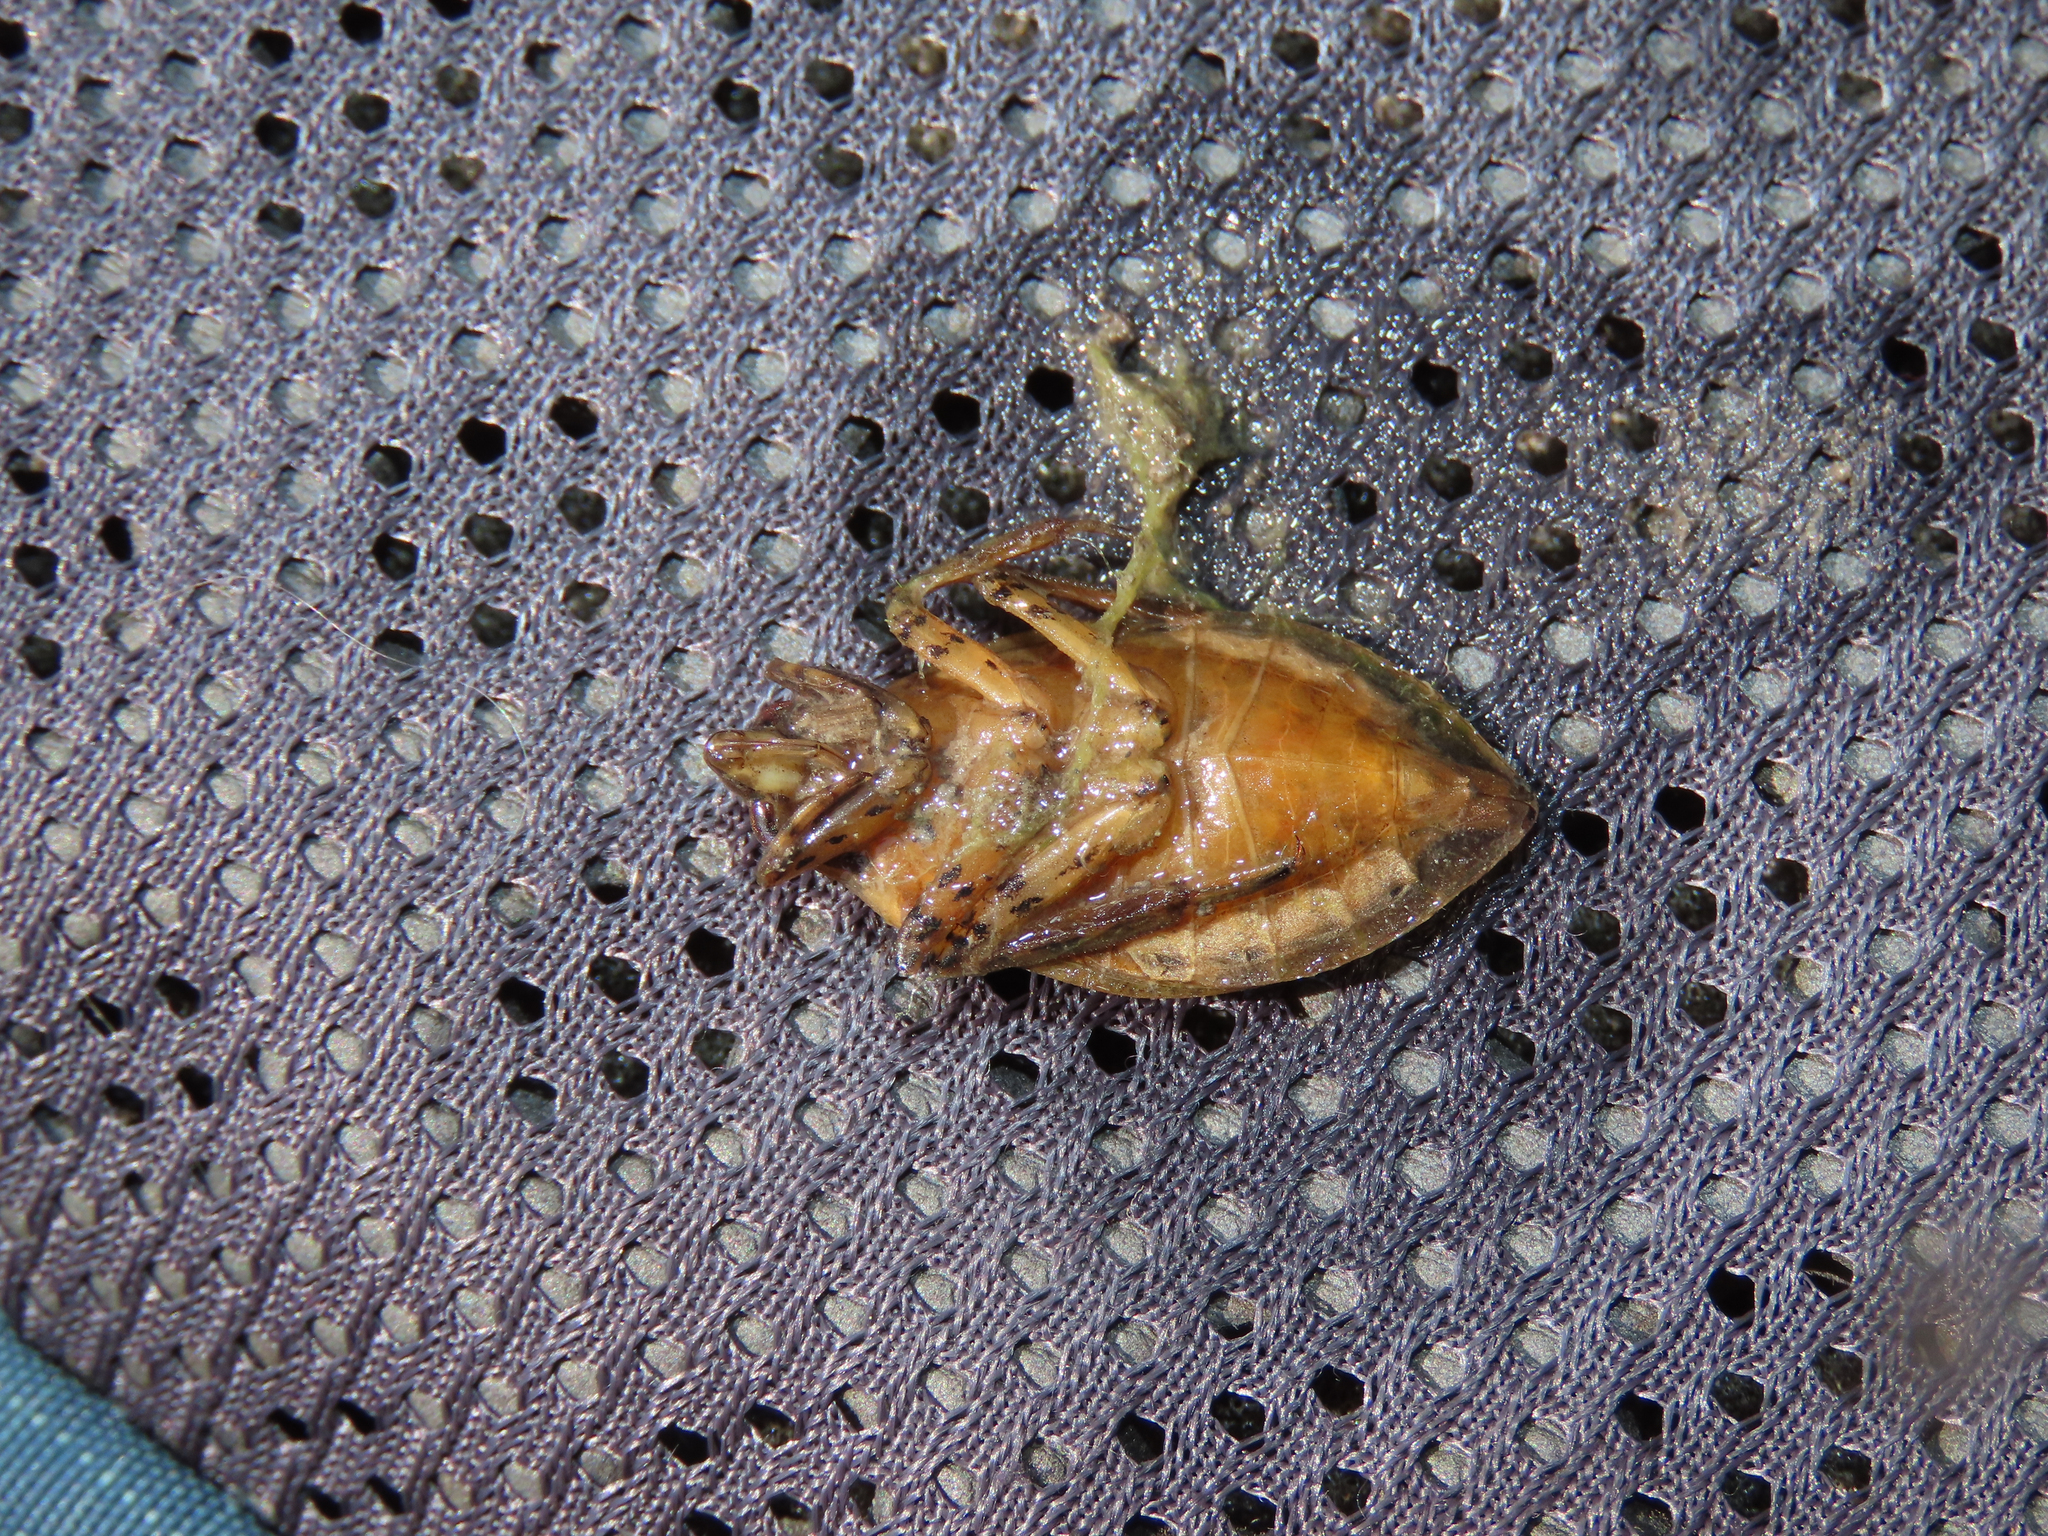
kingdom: Animalia
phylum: Arthropoda
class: Insecta
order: Hemiptera
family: Belostomatidae
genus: Belostoma
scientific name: Belostoma lutarium
